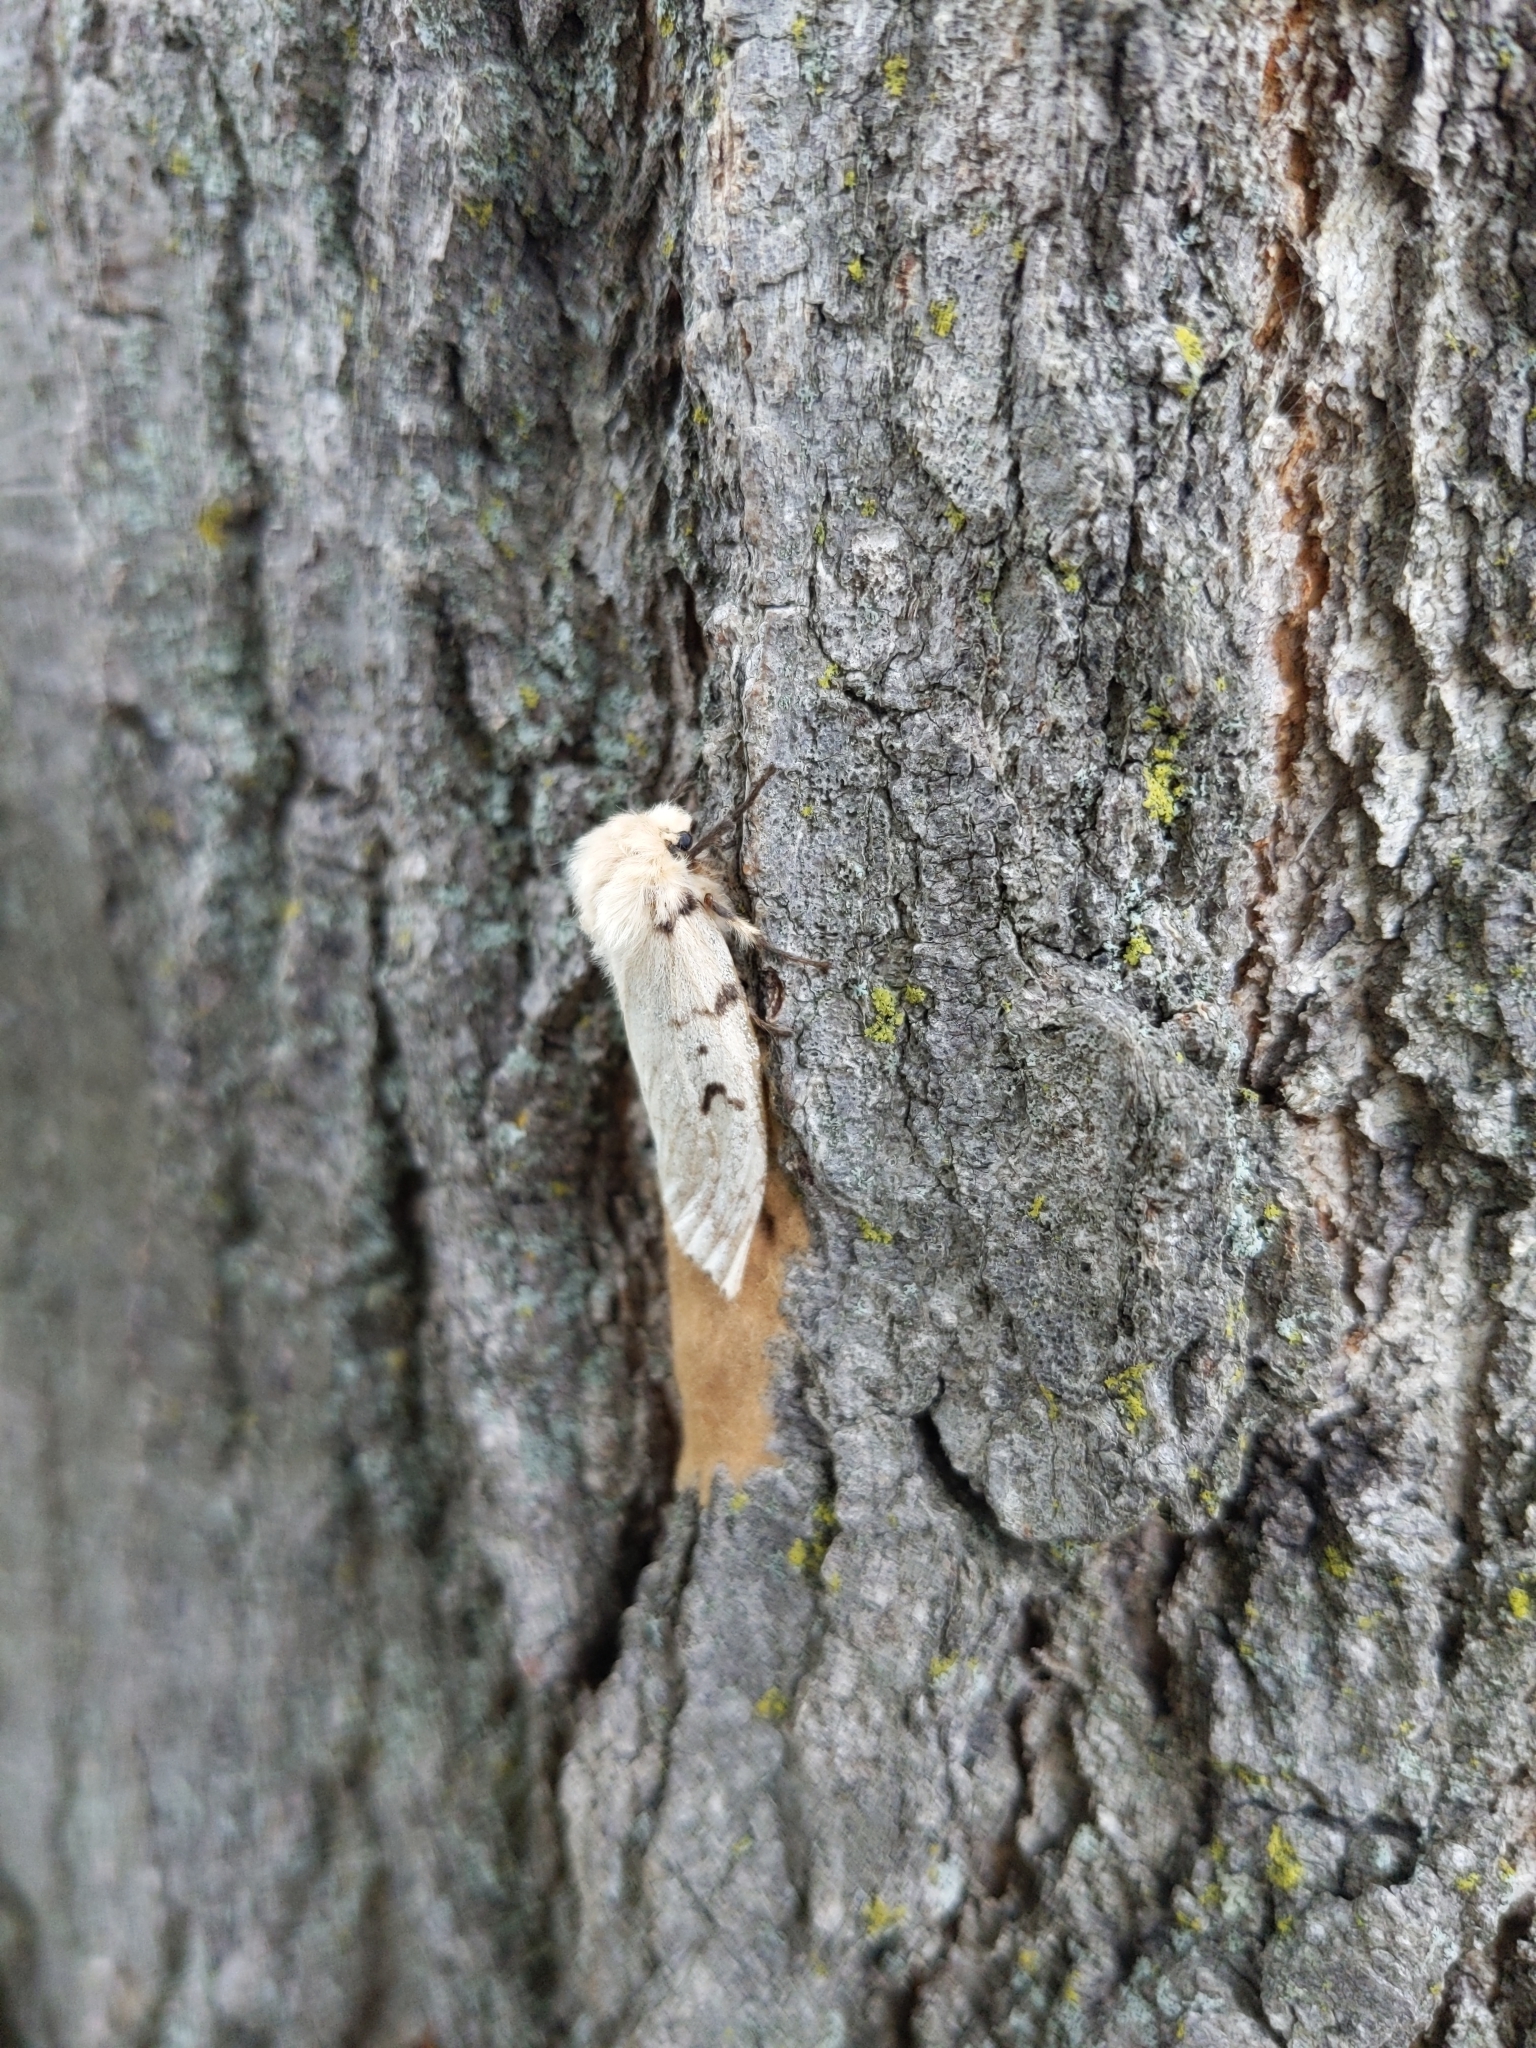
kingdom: Animalia
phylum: Arthropoda
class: Insecta
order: Lepidoptera
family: Erebidae
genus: Lymantria
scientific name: Lymantria dispar
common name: Gypsy moth
